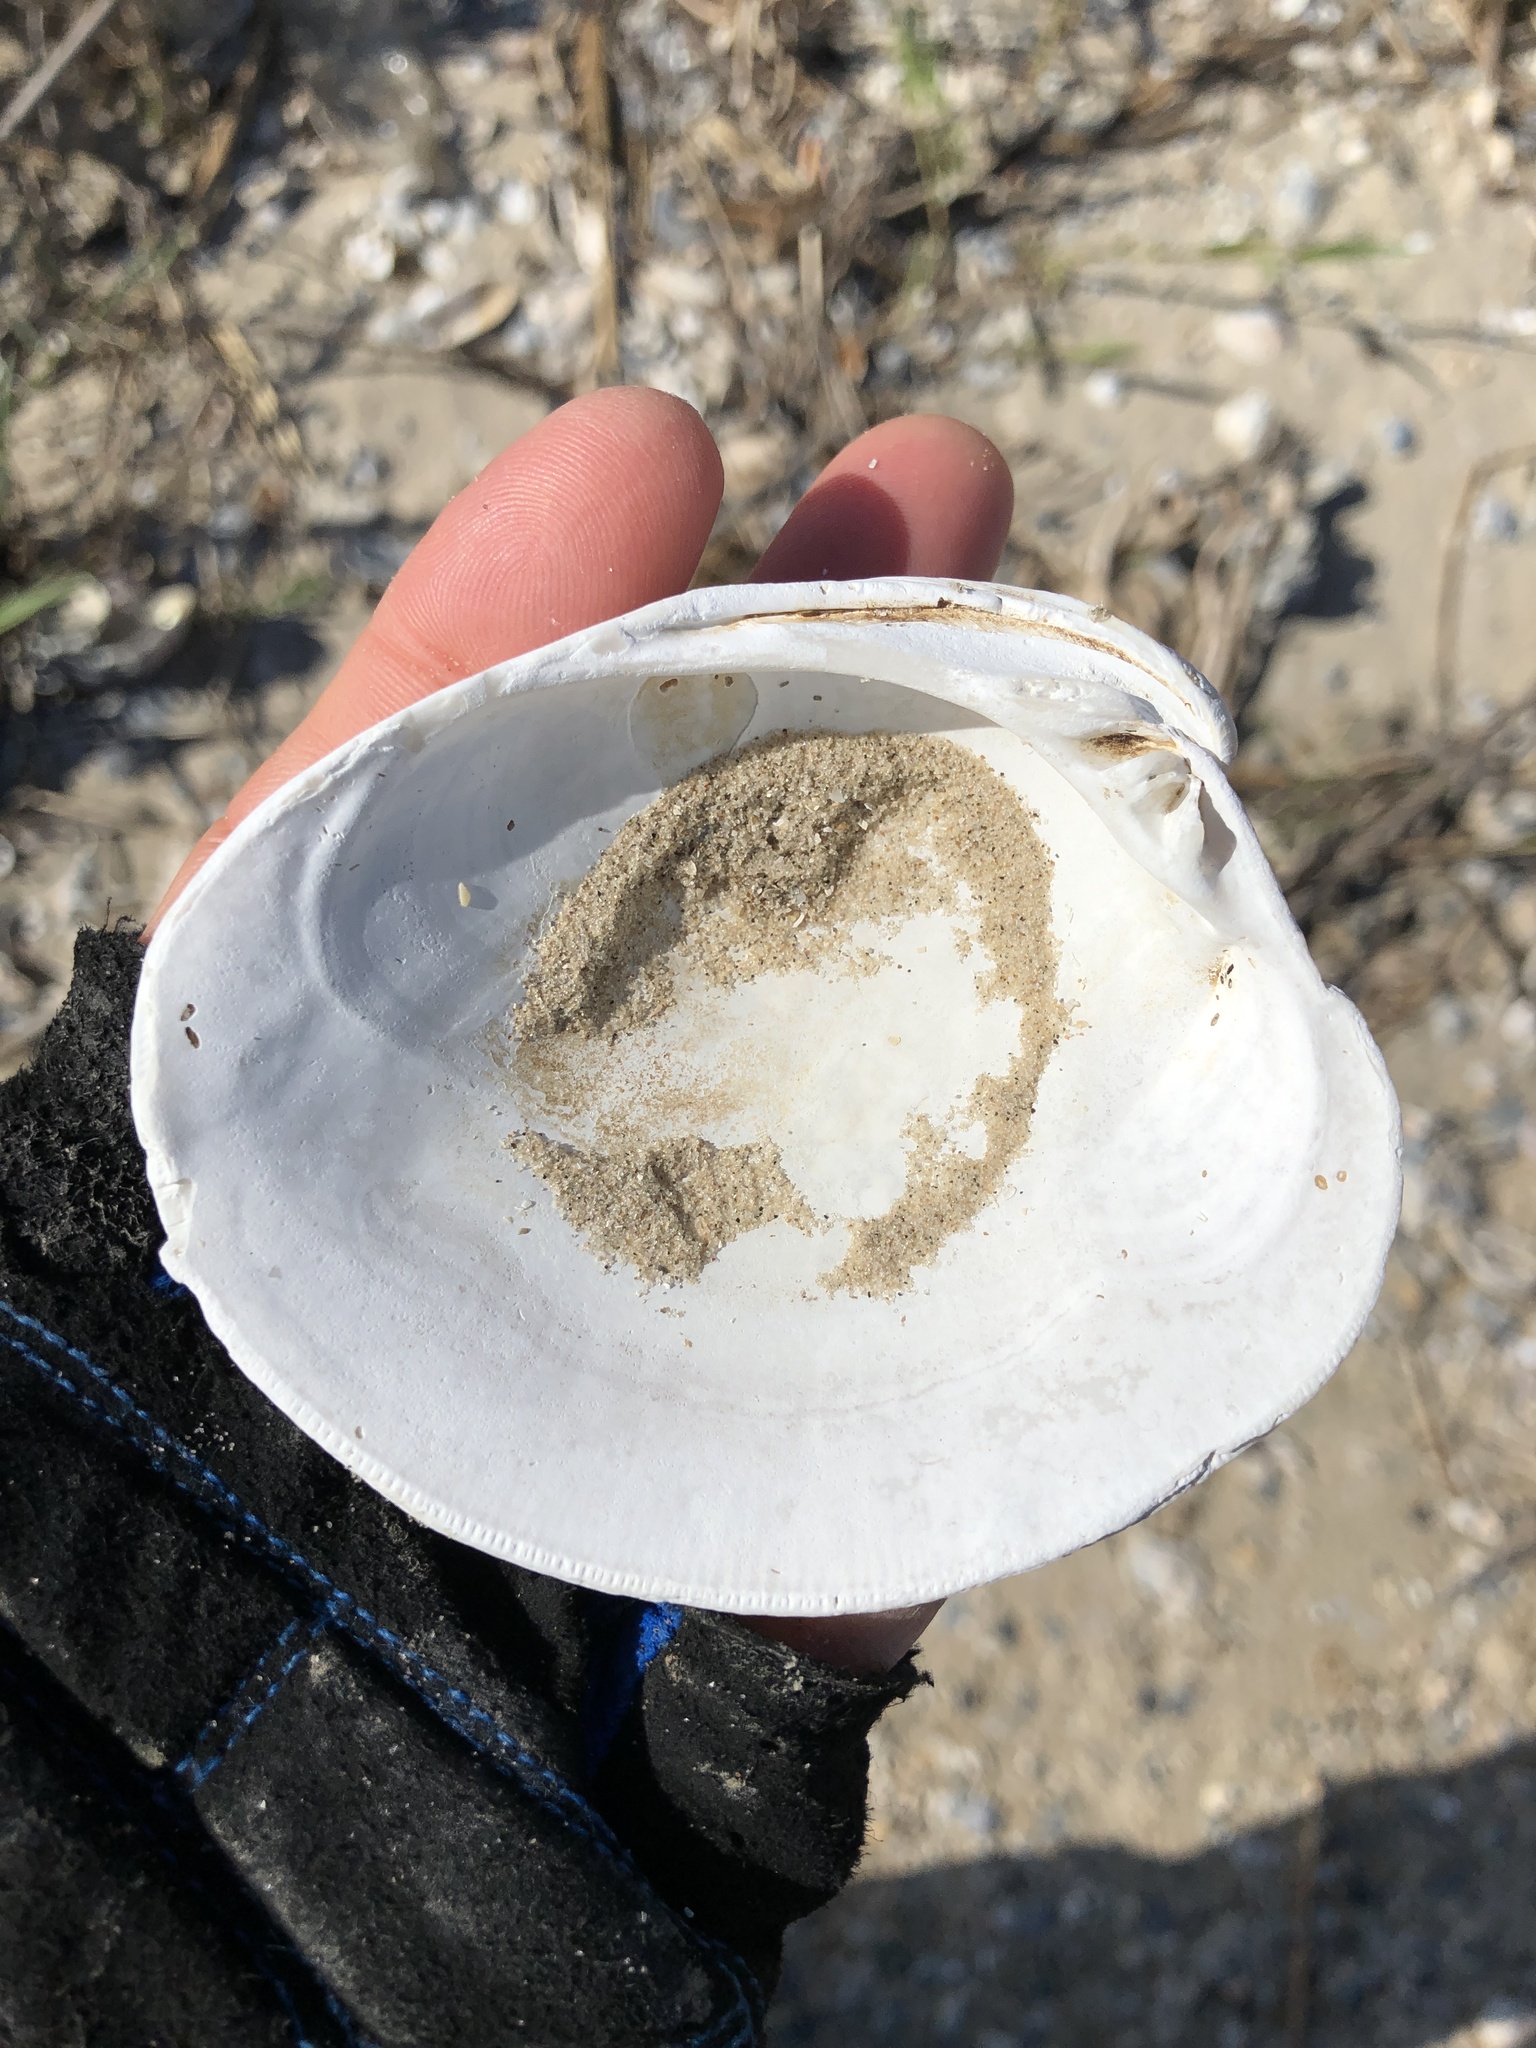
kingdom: Animalia
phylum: Mollusca
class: Bivalvia
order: Venerida
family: Veneridae
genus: Mercenaria
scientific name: Mercenaria campechiensis
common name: Südliche quahog-muschel
